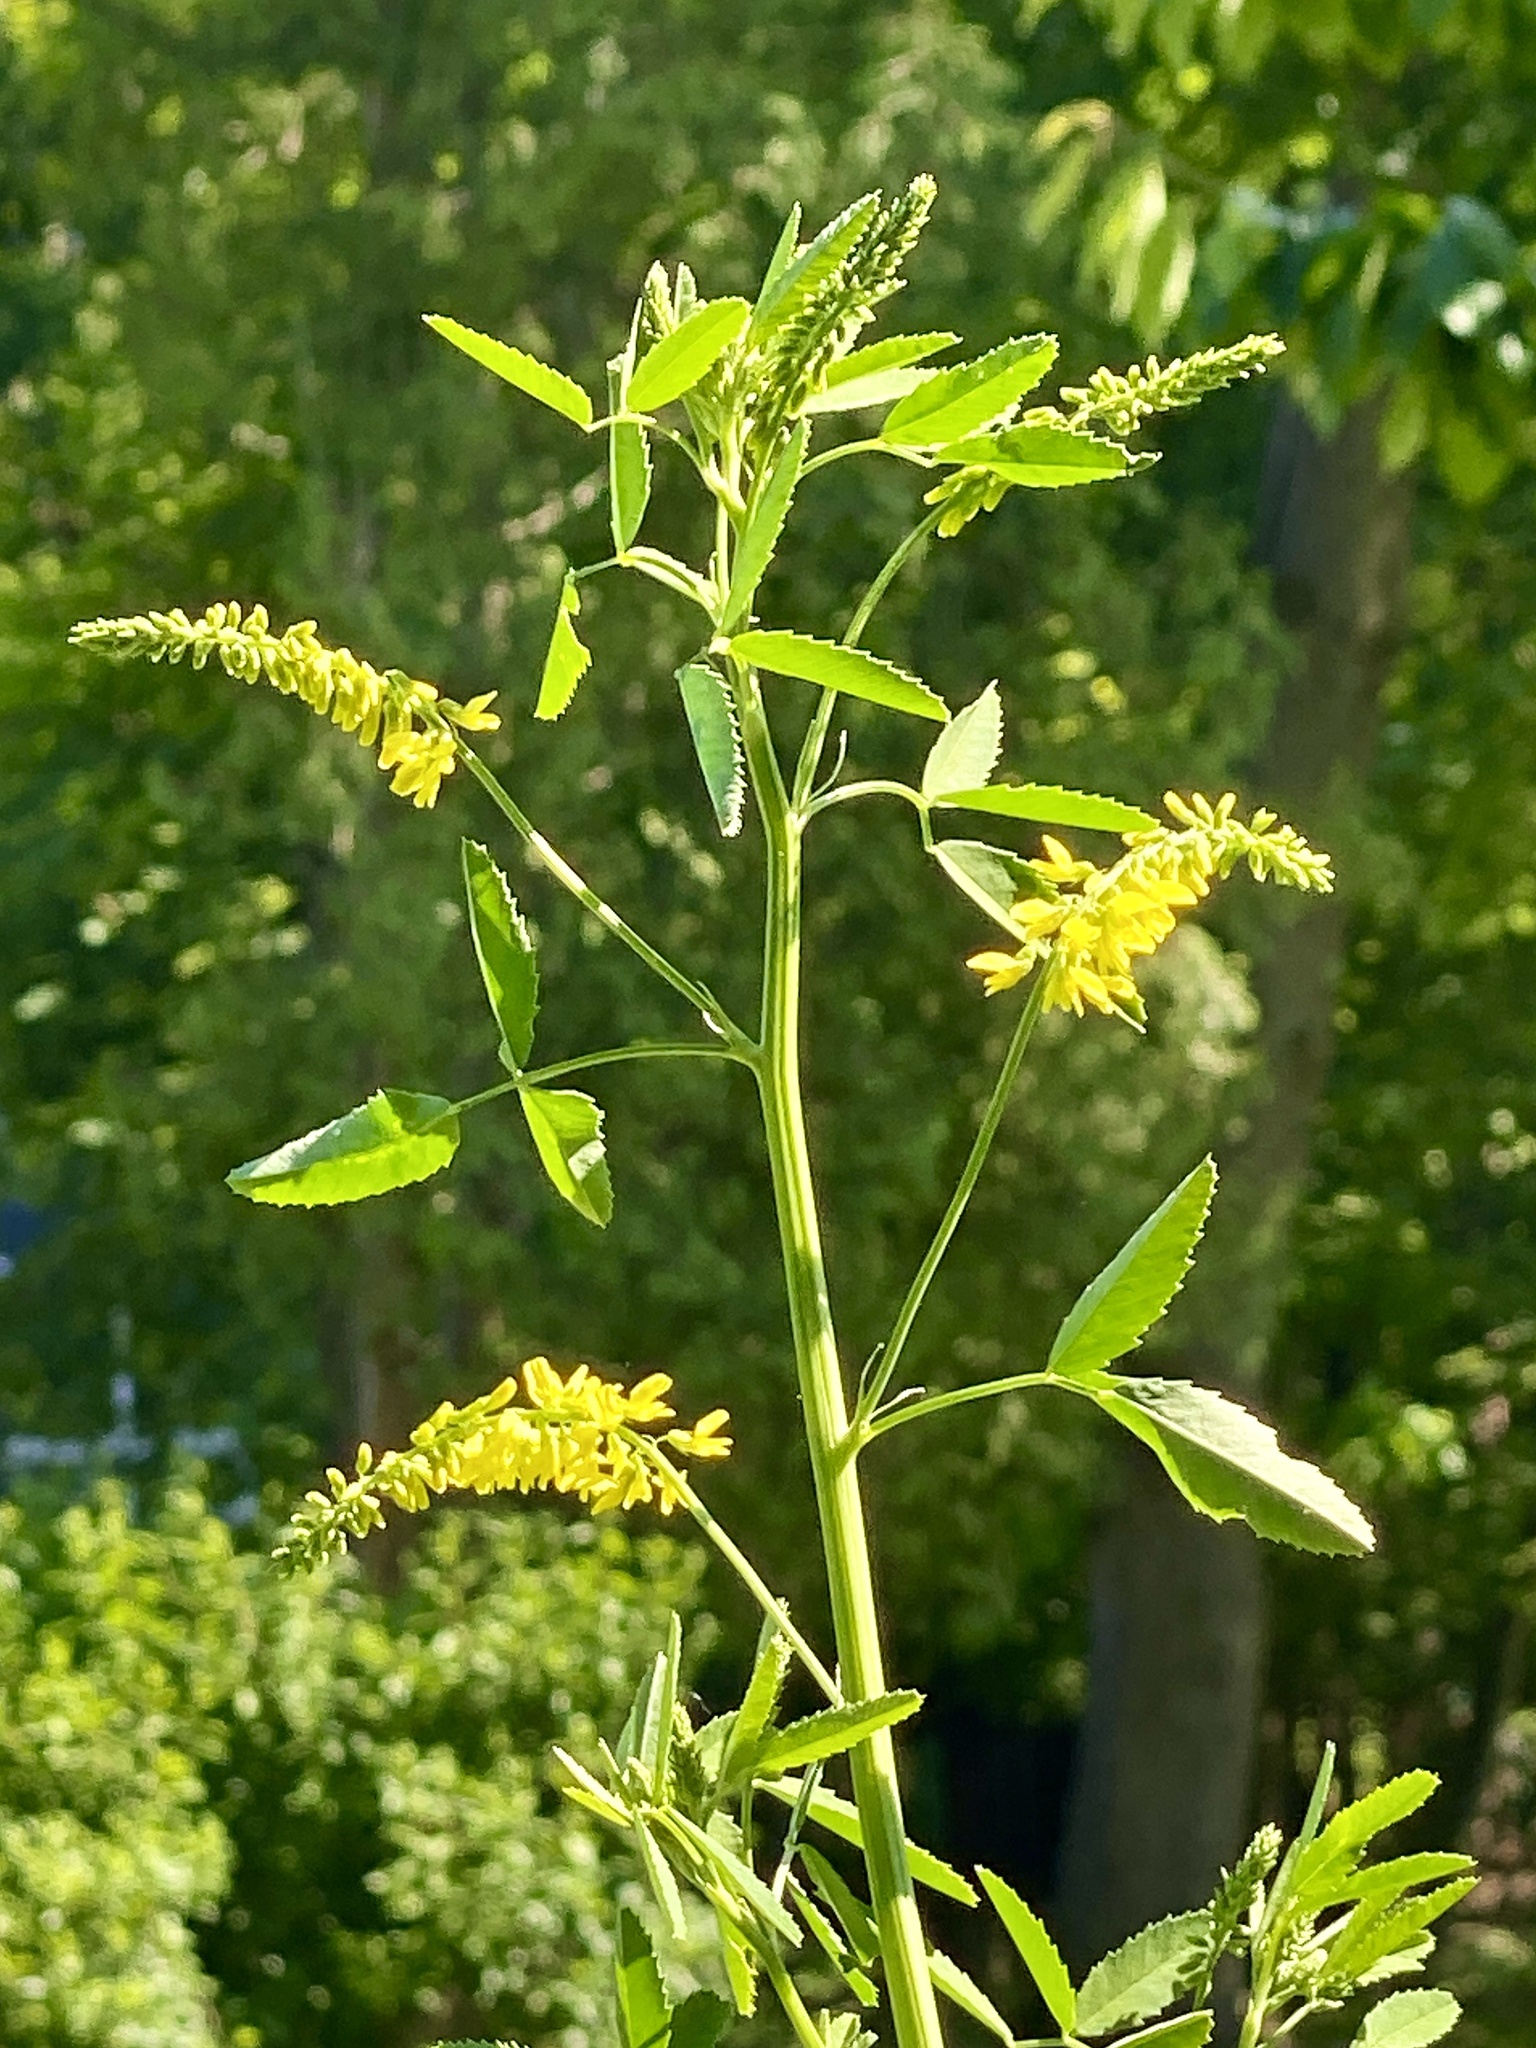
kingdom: Plantae
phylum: Tracheophyta
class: Magnoliopsida
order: Fabales
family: Fabaceae
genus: Melilotus
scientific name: Melilotus officinalis
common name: Sweetclover
